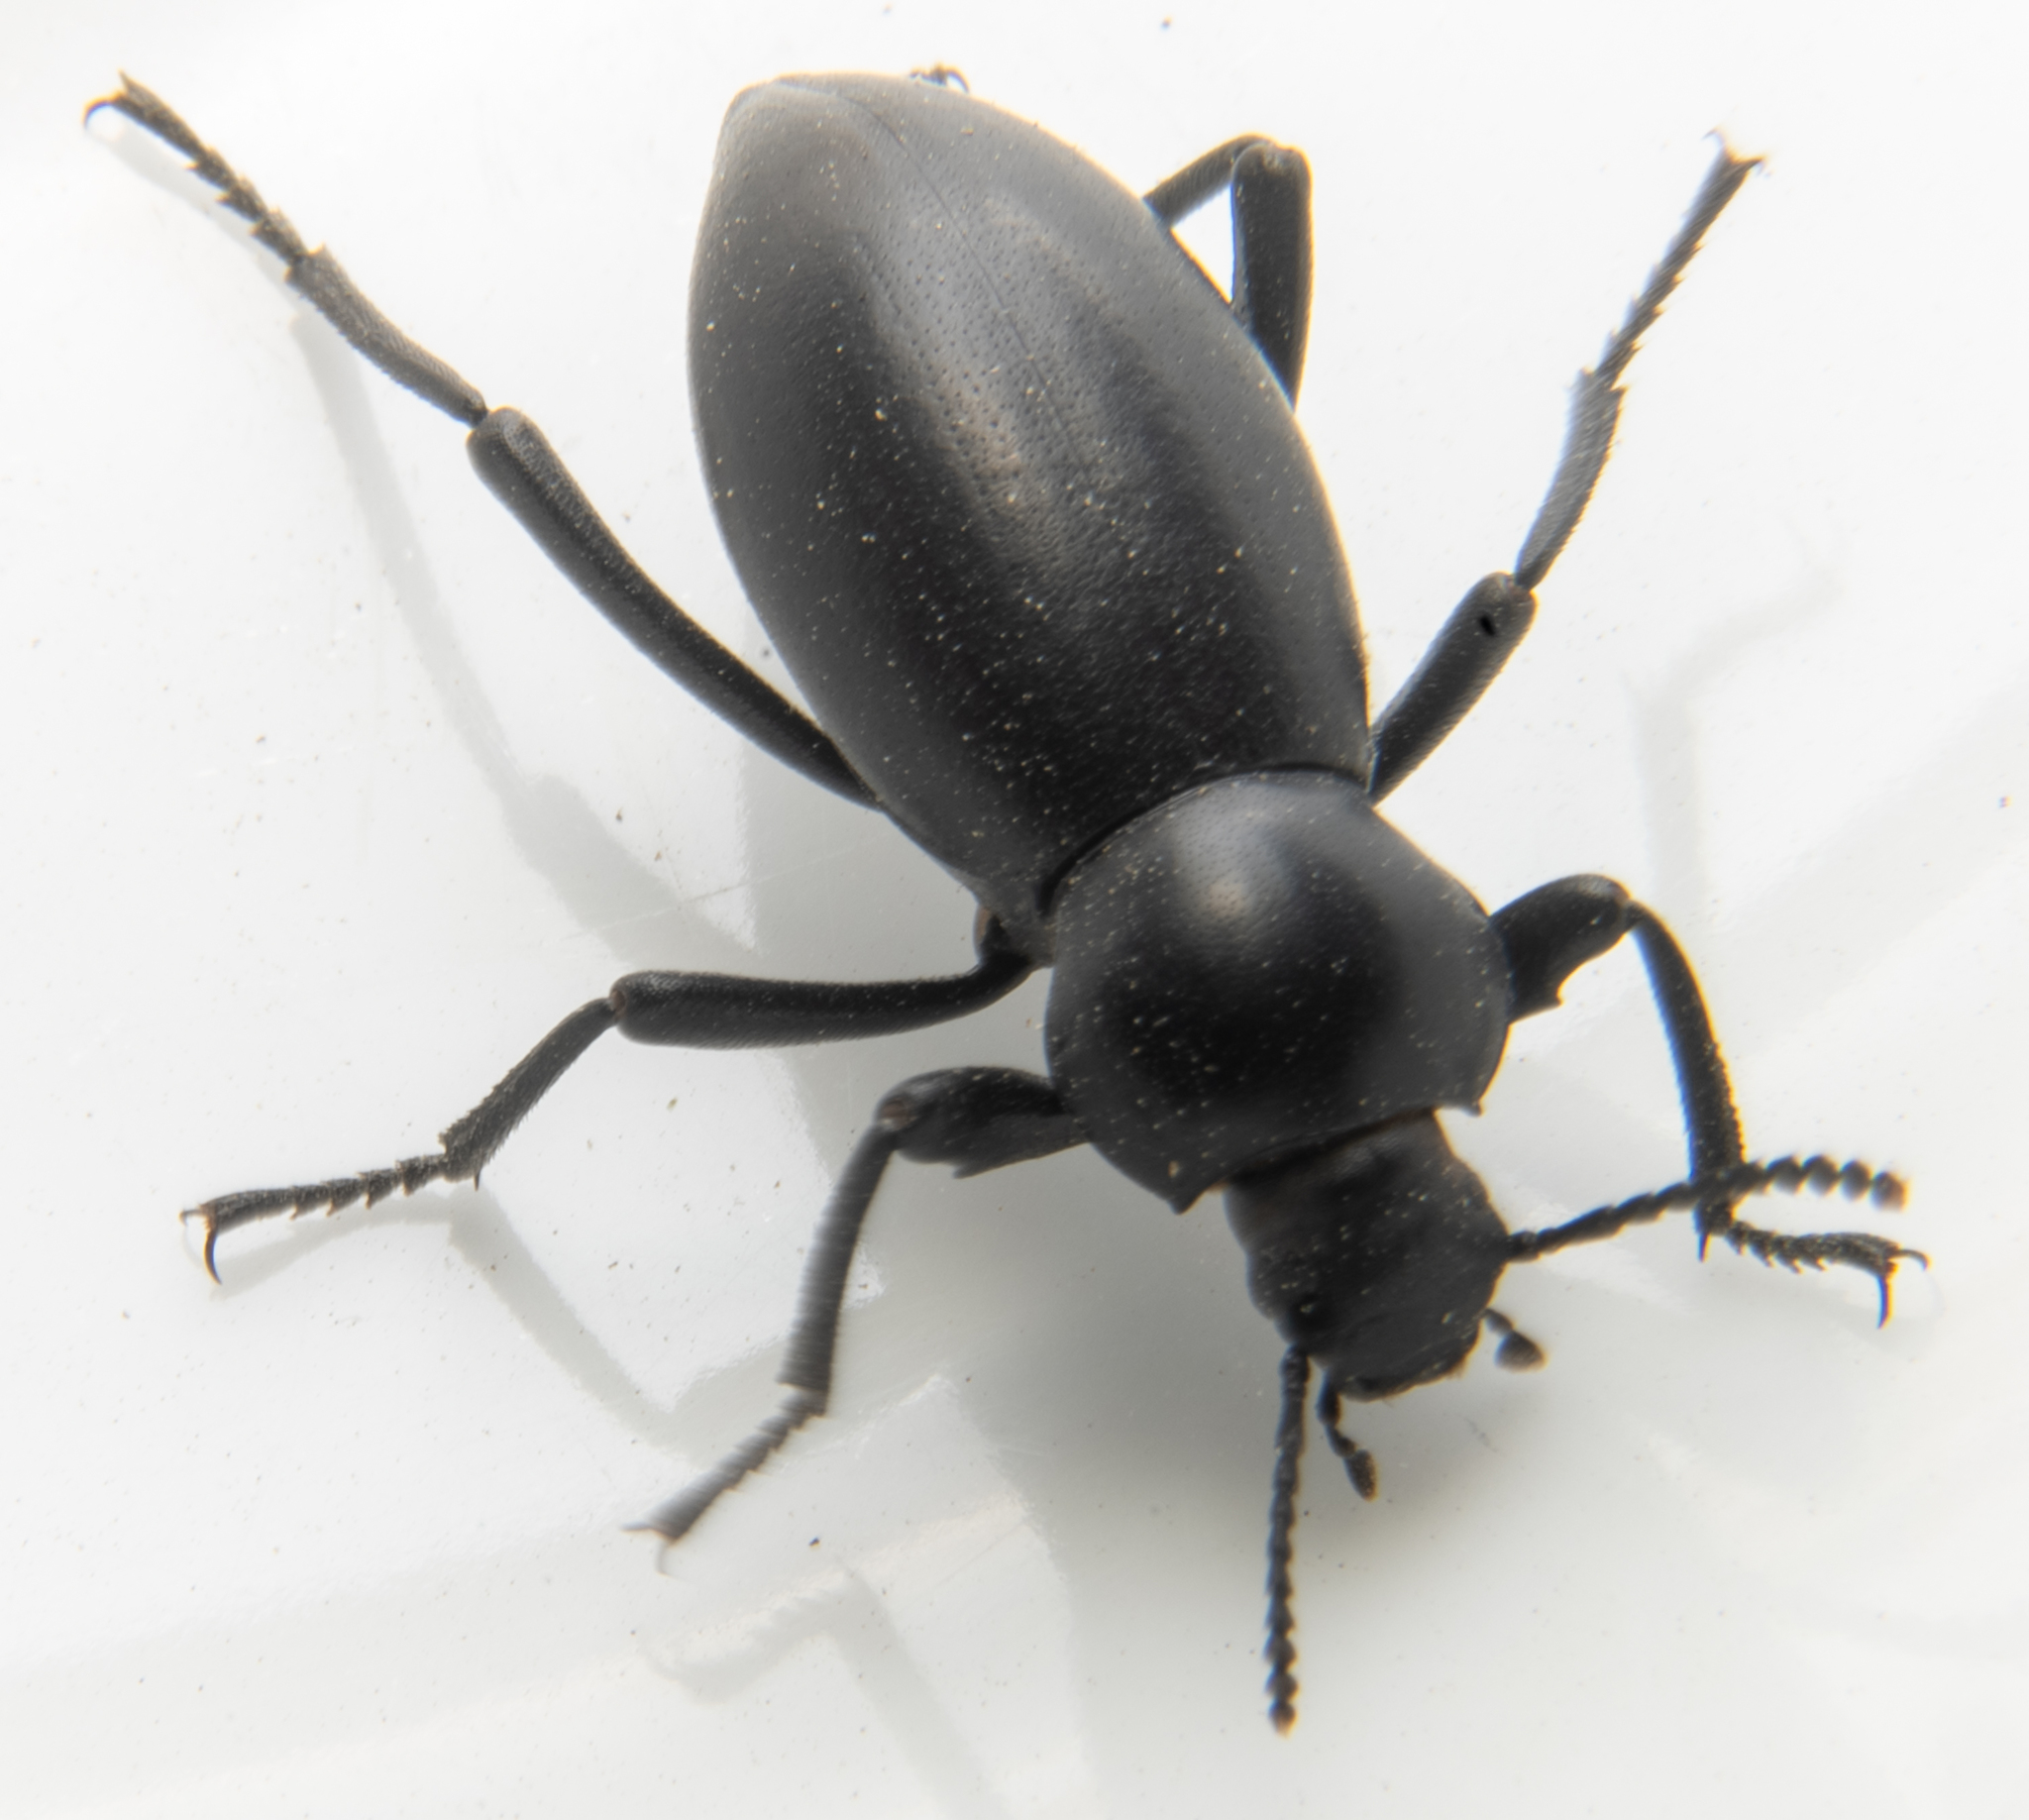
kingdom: Animalia
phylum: Arthropoda
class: Insecta
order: Coleoptera
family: Tenebrionidae
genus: Eleodes
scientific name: Eleodes dentipes
